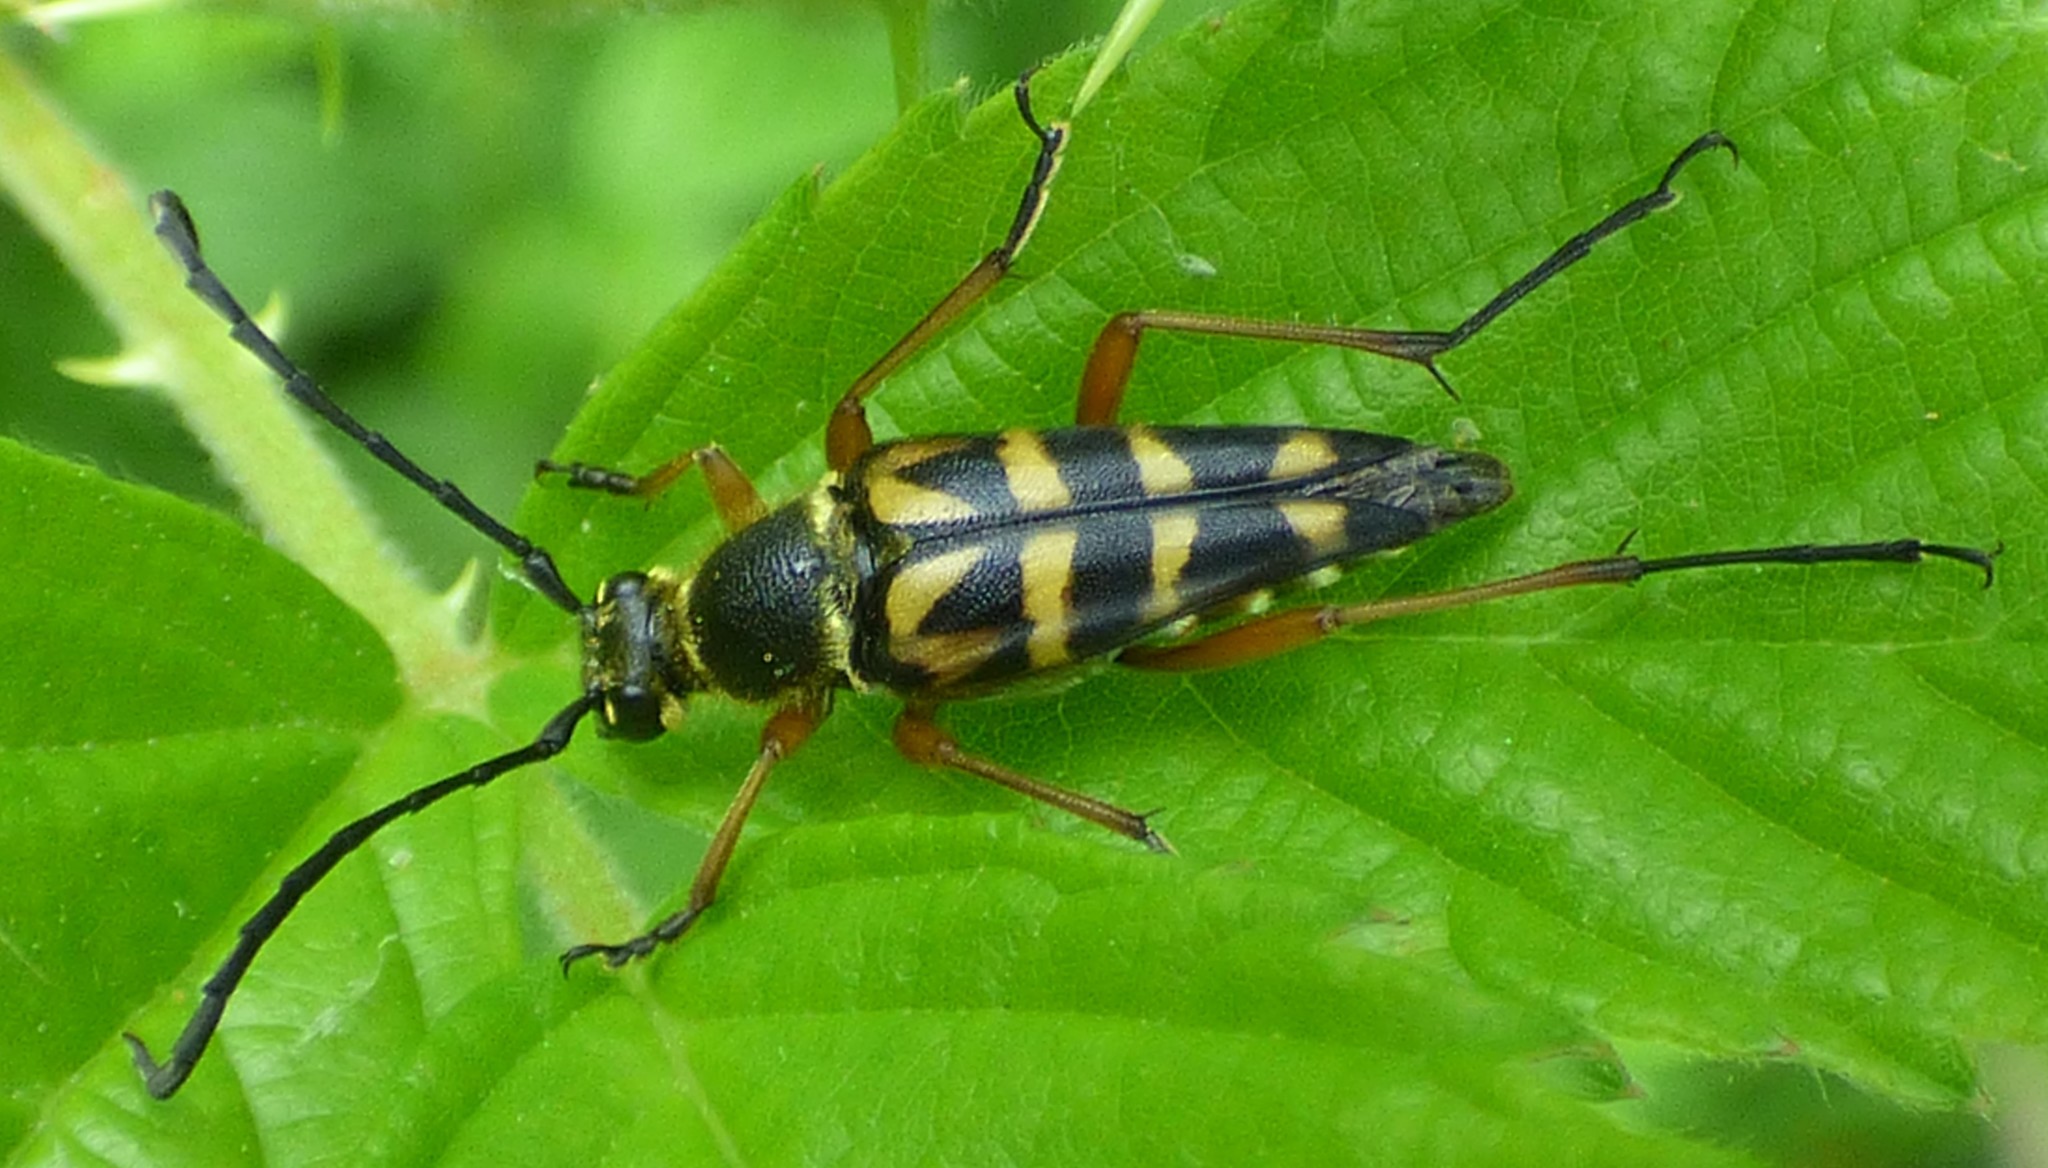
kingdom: Animalia
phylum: Arthropoda
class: Insecta
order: Coleoptera
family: Cerambycidae
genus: Typocerus
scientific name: Typocerus zebra
